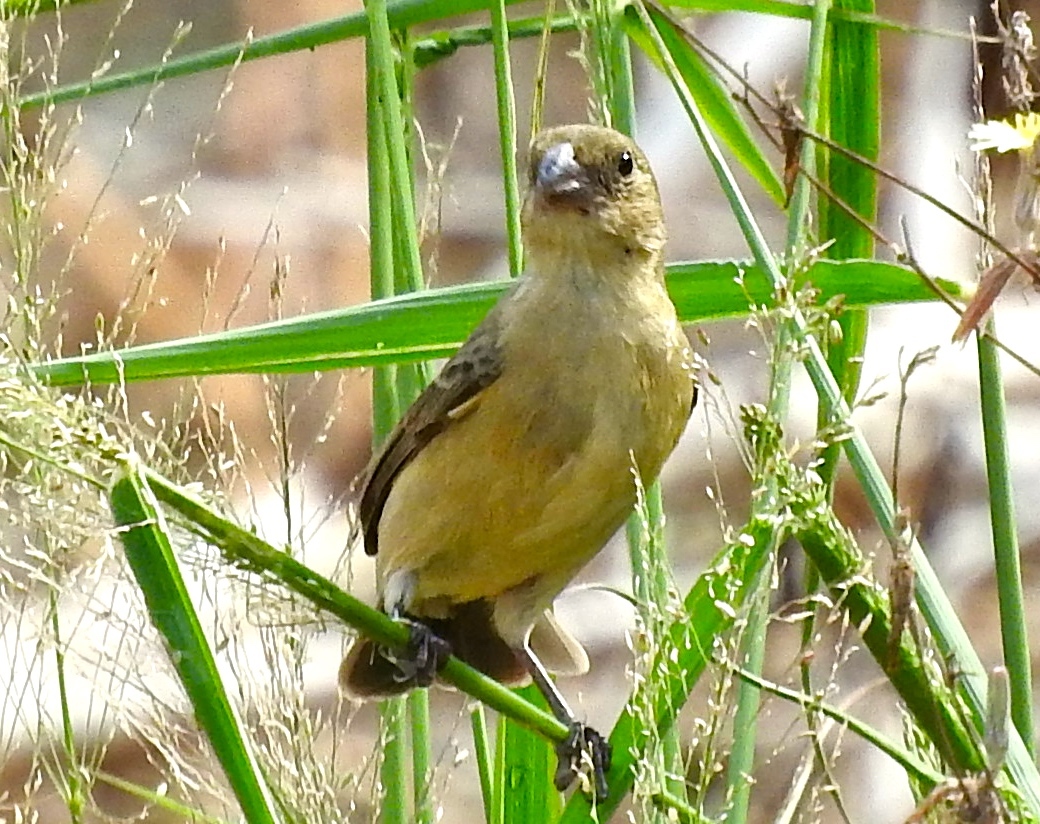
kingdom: Animalia
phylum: Chordata
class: Aves
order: Passeriformes
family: Thraupidae
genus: Sporophila
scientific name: Sporophila torqueola
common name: White-collared seedeater
